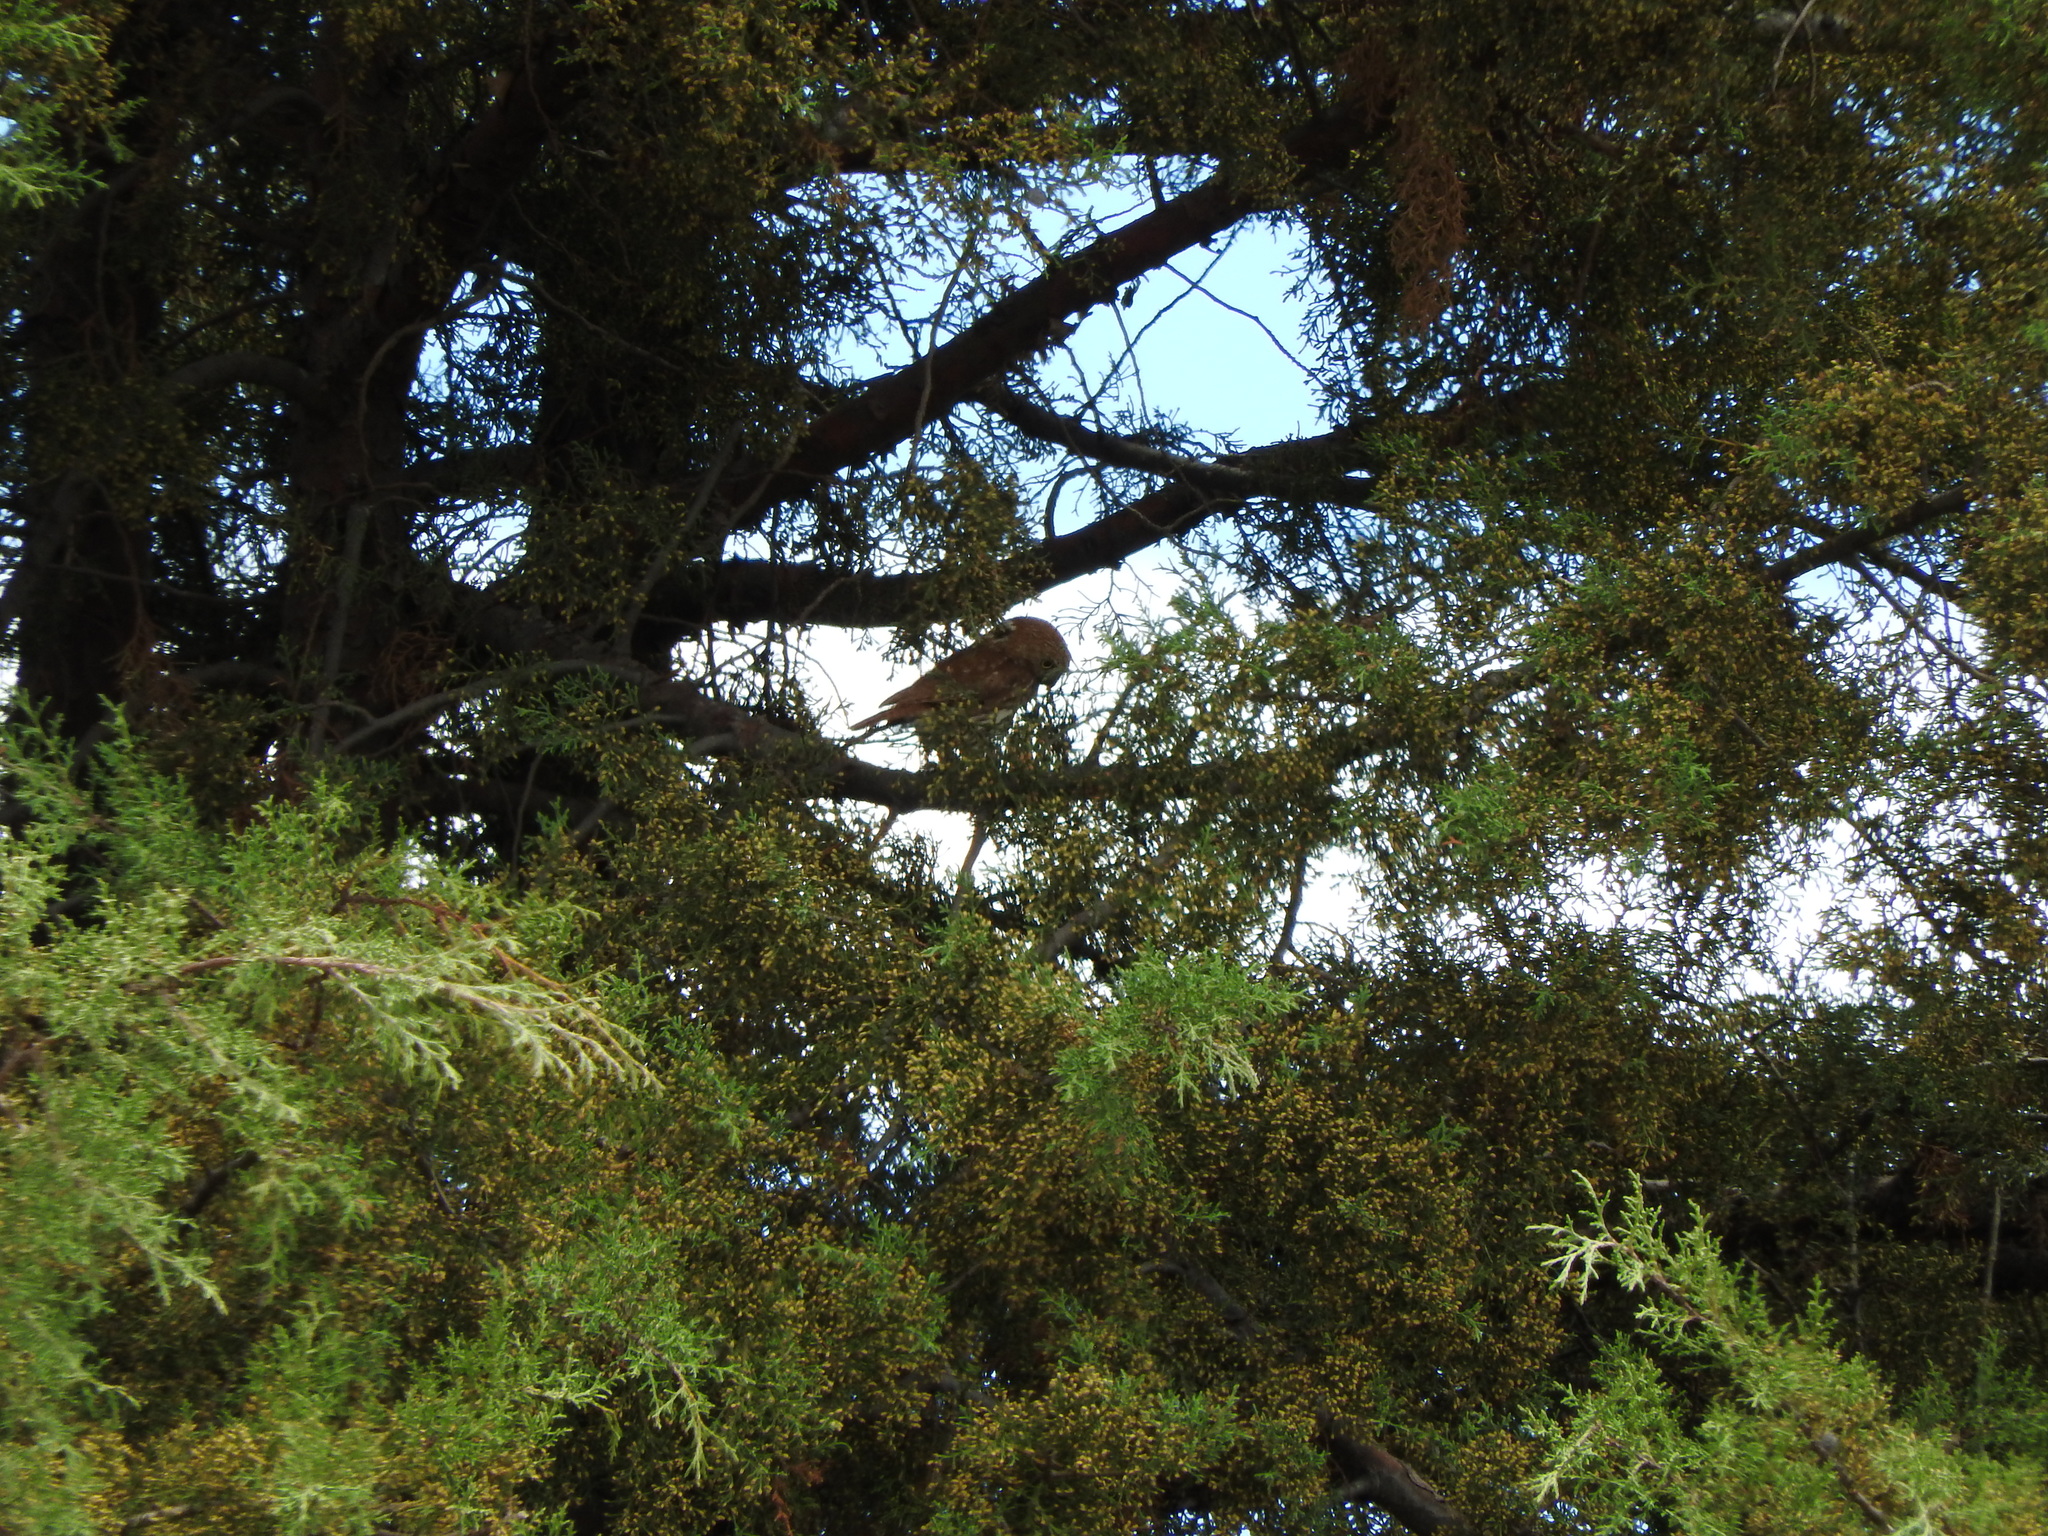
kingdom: Animalia
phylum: Chordata
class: Aves
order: Strigiformes
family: Strigidae
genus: Glaucidium
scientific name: Glaucidium brasilianum
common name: Ferruginous pygmy-owl
